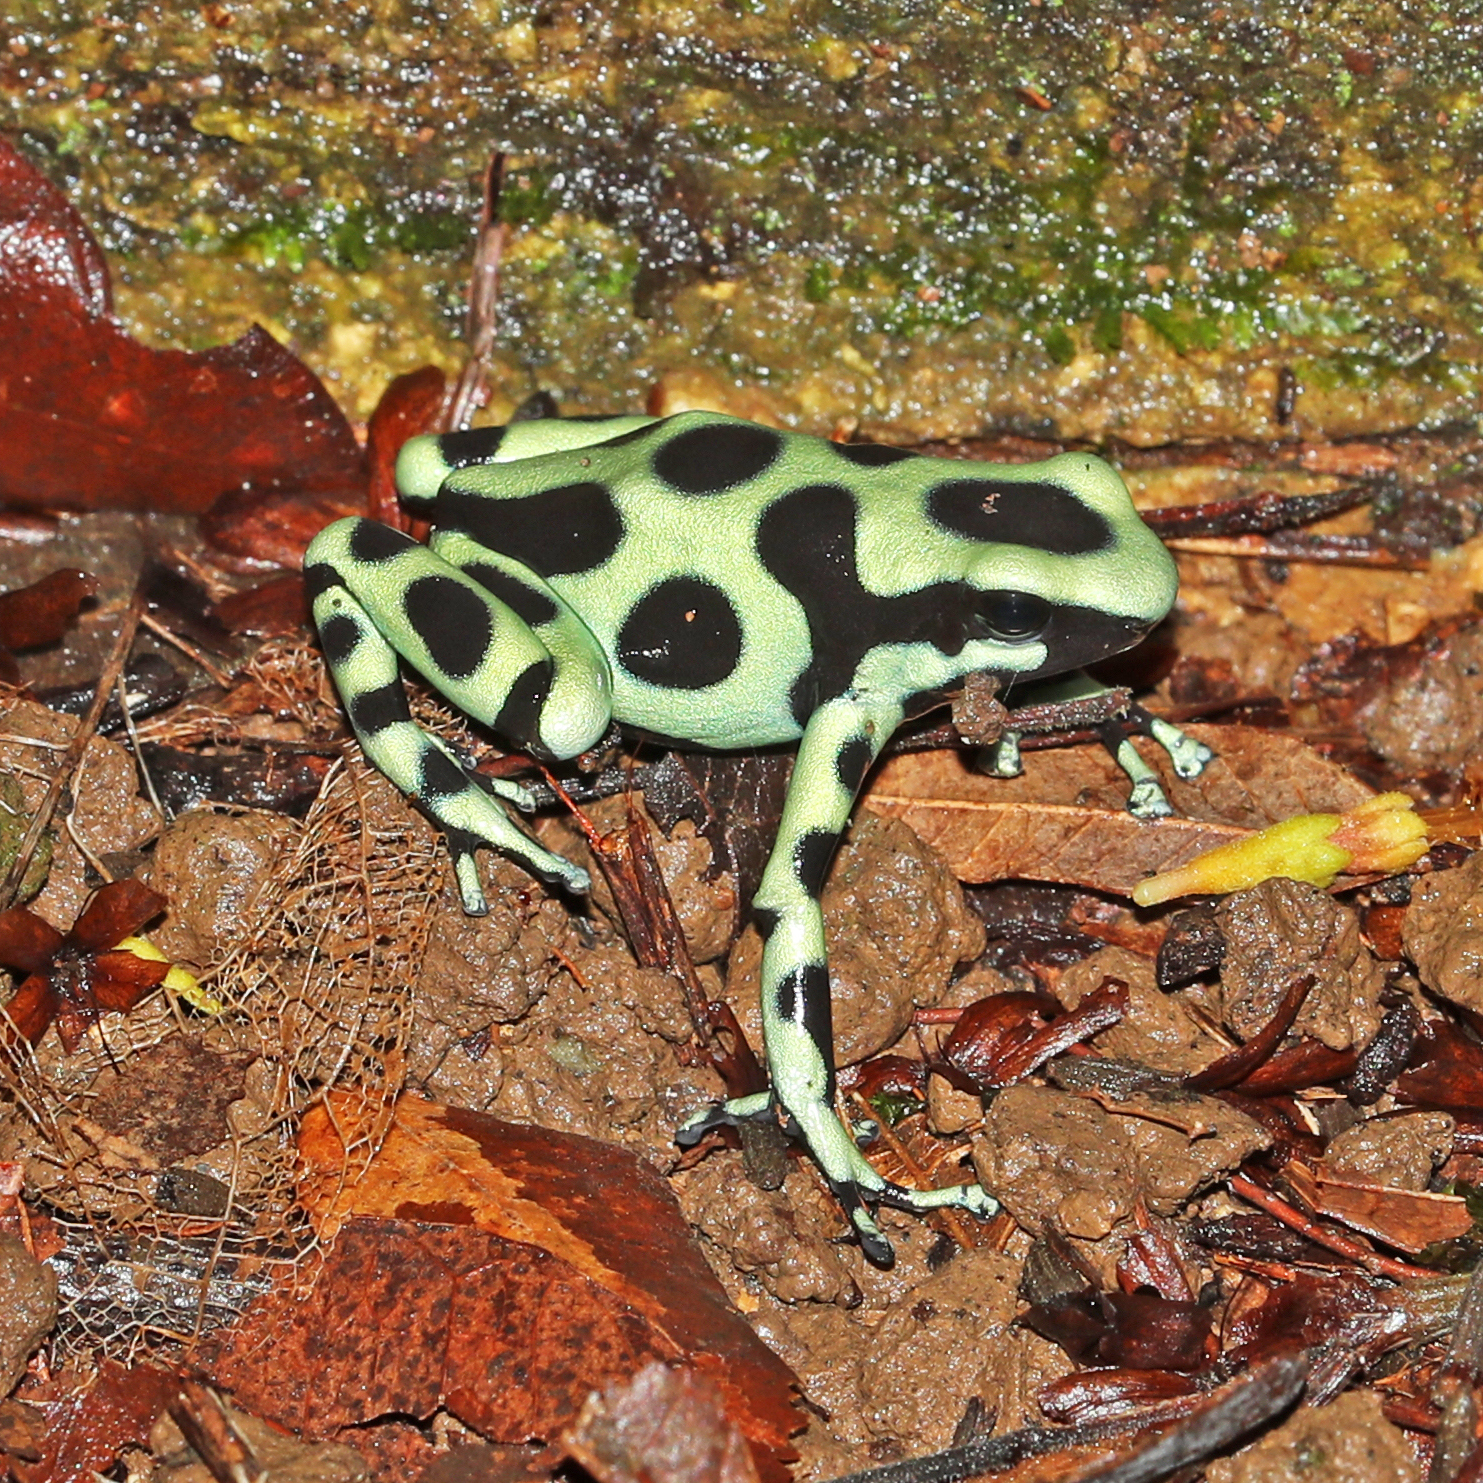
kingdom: Animalia
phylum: Chordata
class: Amphibia
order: Anura
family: Dendrobatidae
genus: Dendrobates
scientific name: Dendrobates auratus
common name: Green and black poison dart frog
